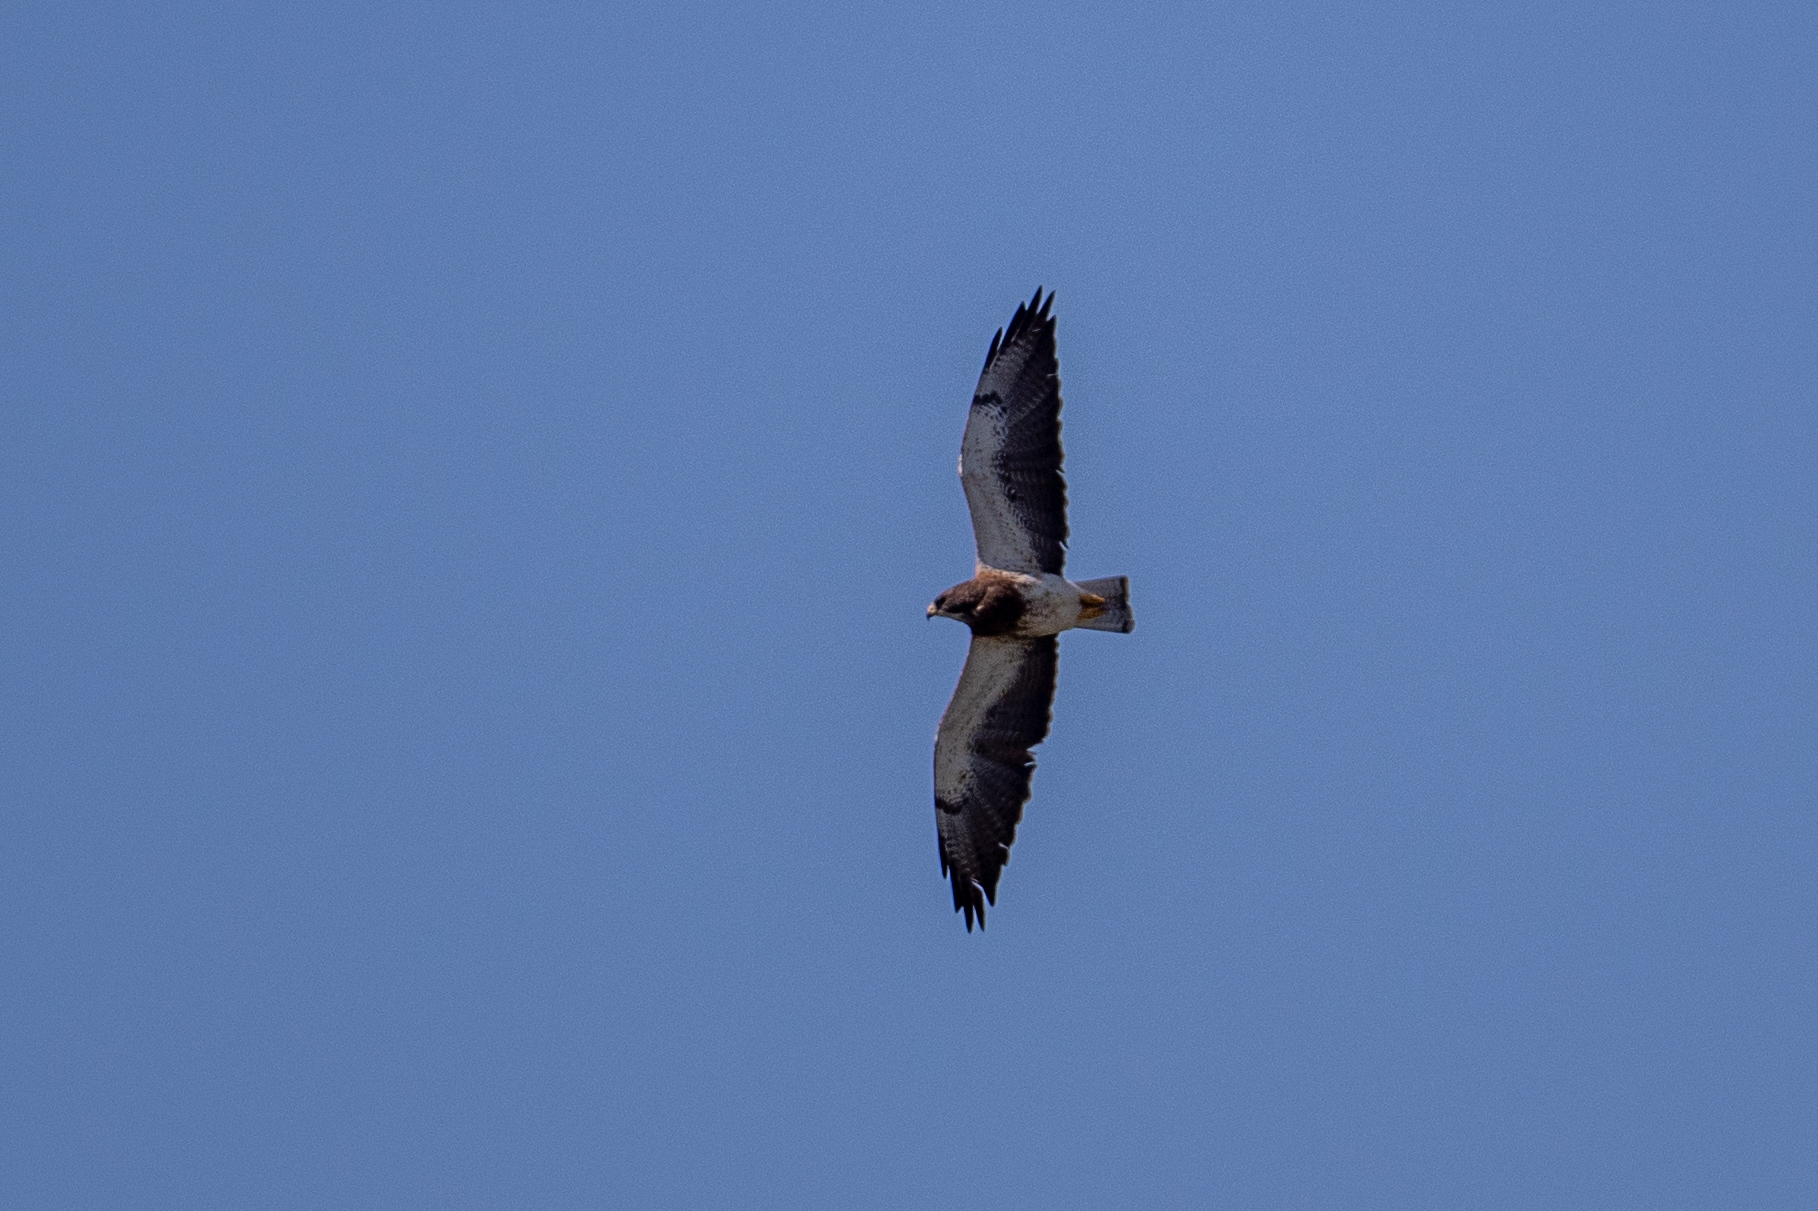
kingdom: Animalia
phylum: Chordata
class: Aves
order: Accipitriformes
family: Accipitridae
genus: Buteo
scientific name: Buteo swainsoni
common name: Swainson's hawk
